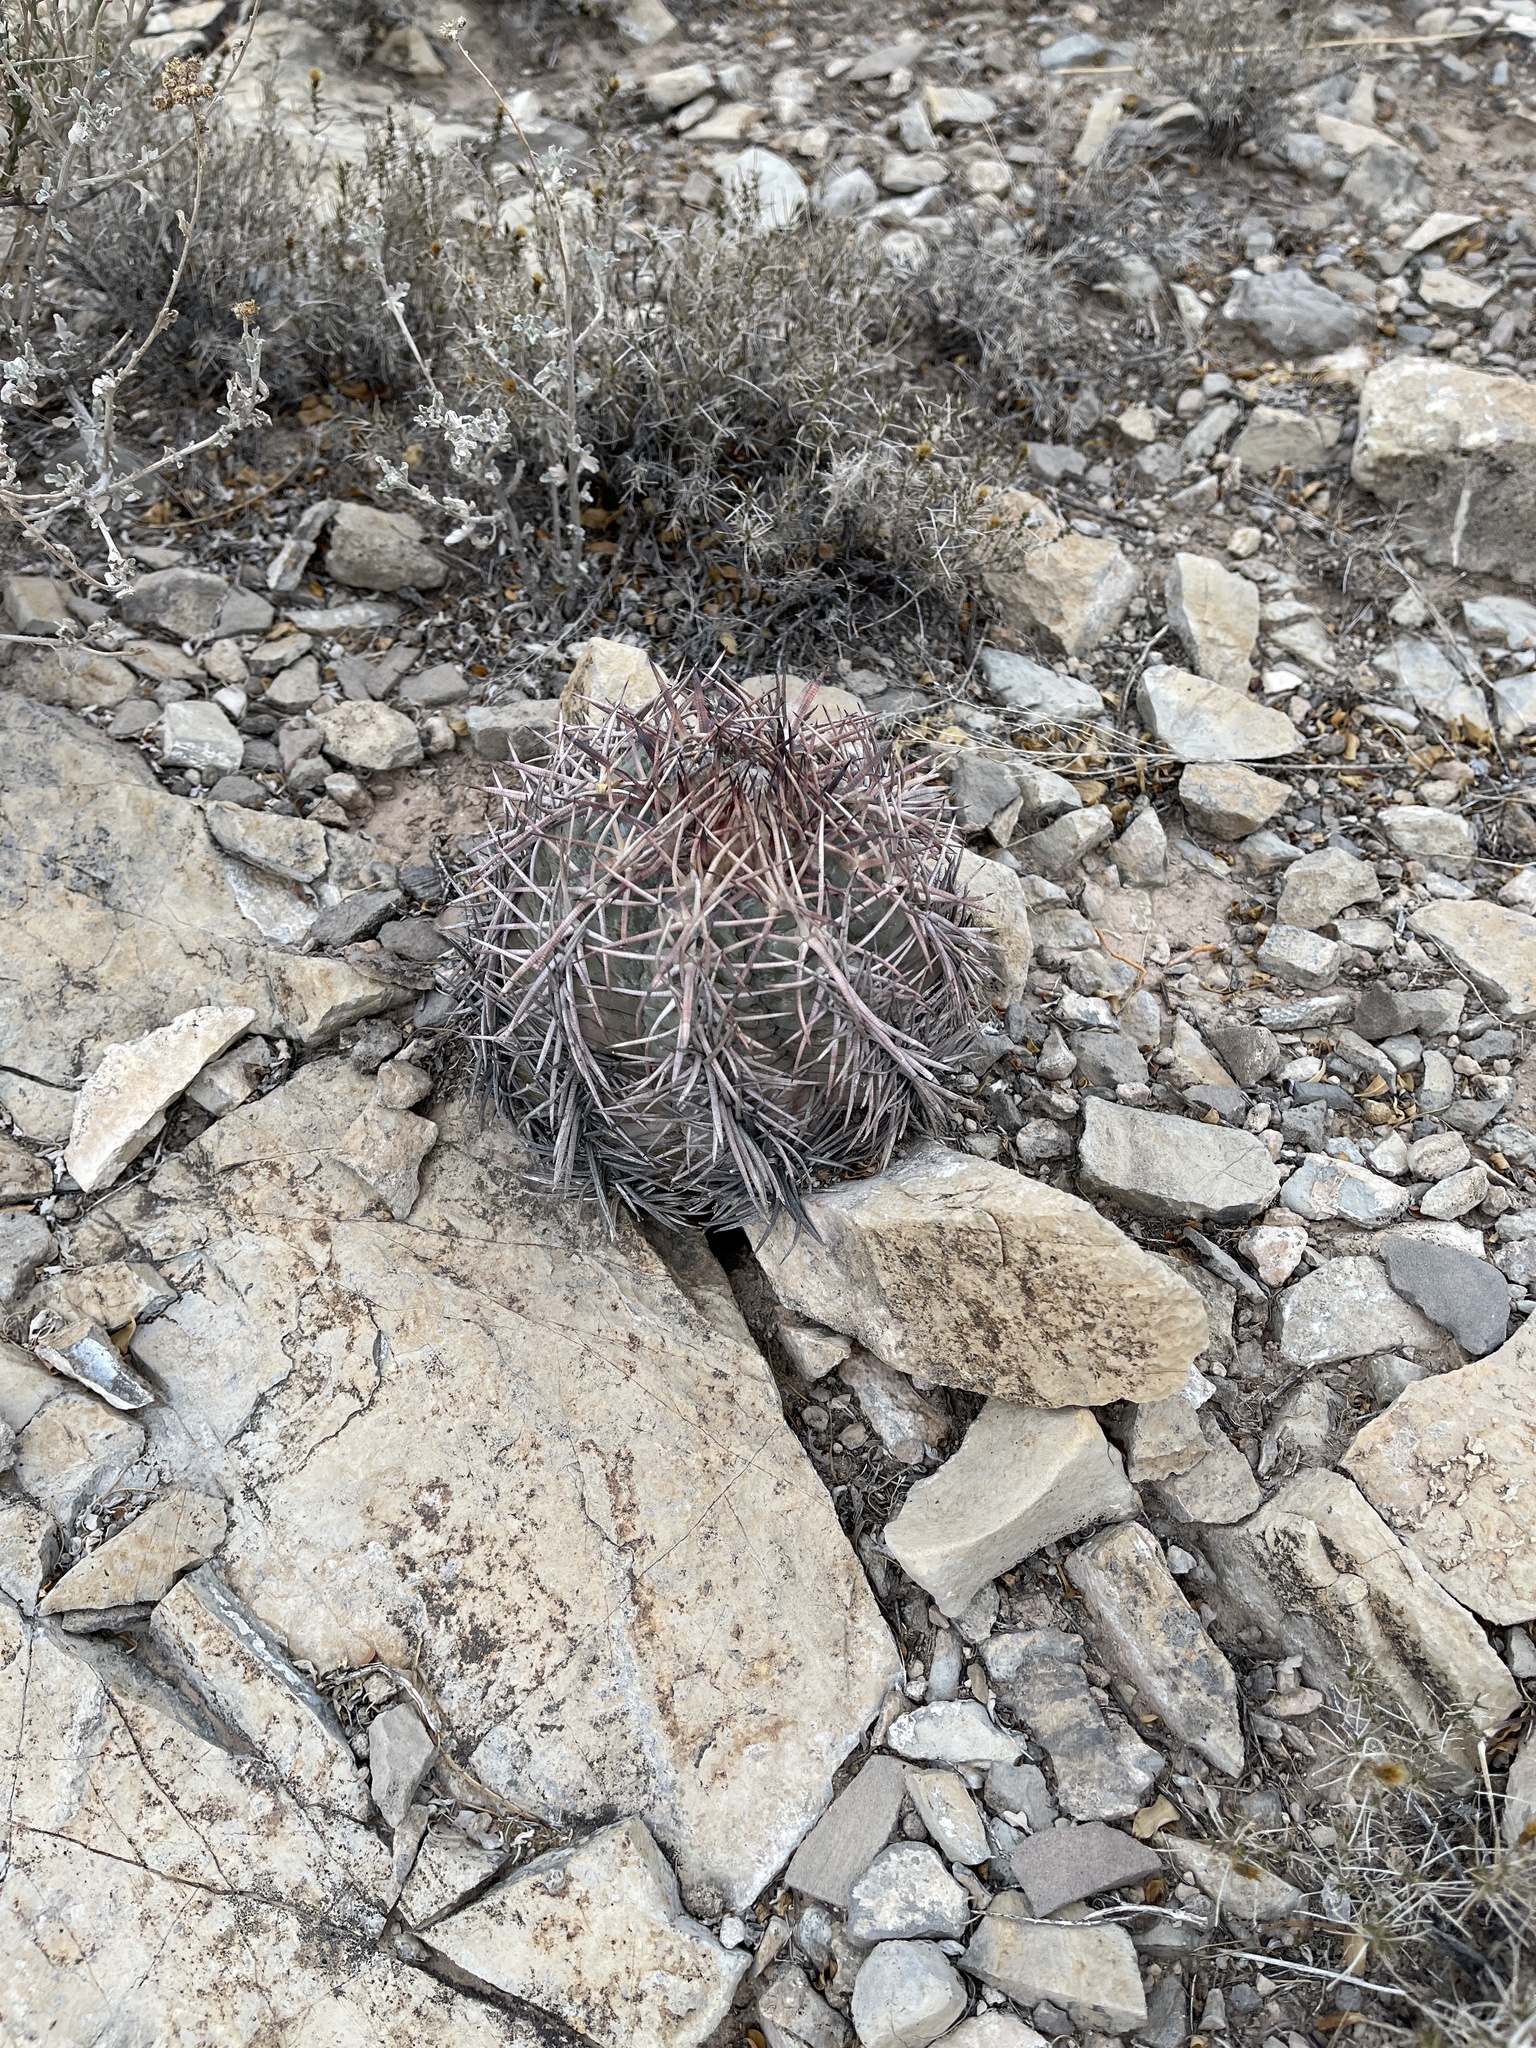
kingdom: Plantae
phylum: Tracheophyta
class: Magnoliopsida
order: Caryophyllales
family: Cactaceae
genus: Echinocactus
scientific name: Echinocactus horizonthalonius
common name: Devilshead
